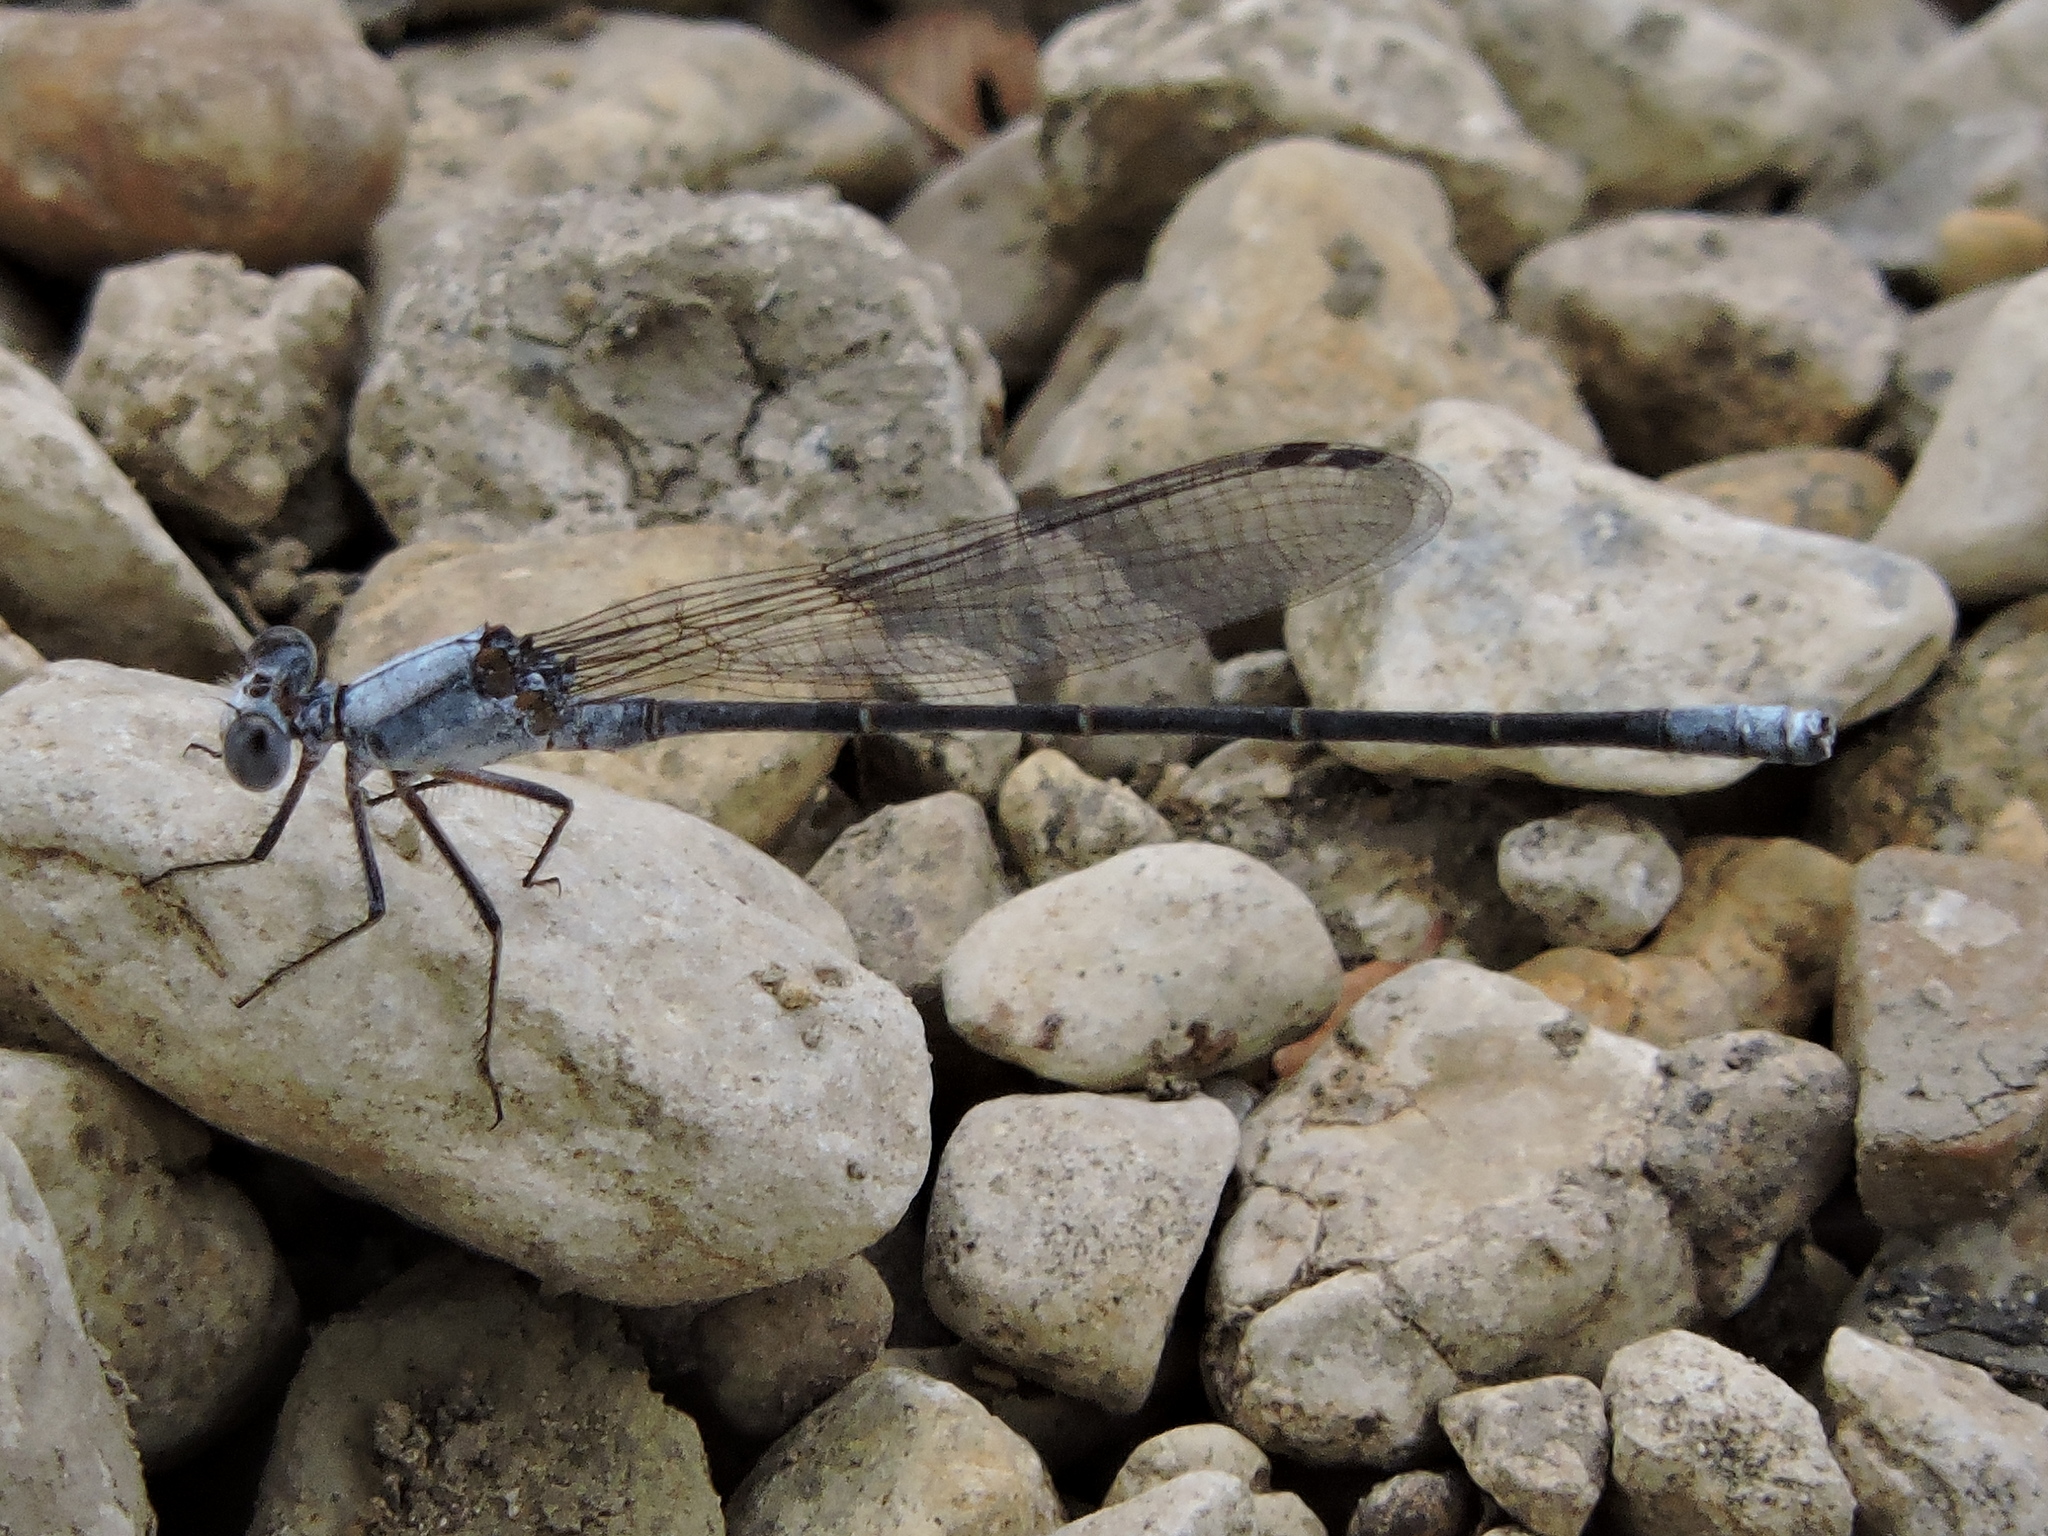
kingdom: Animalia
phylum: Arthropoda
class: Insecta
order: Odonata
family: Coenagrionidae
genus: Argia
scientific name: Argia moesta
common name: Powdered dancer
